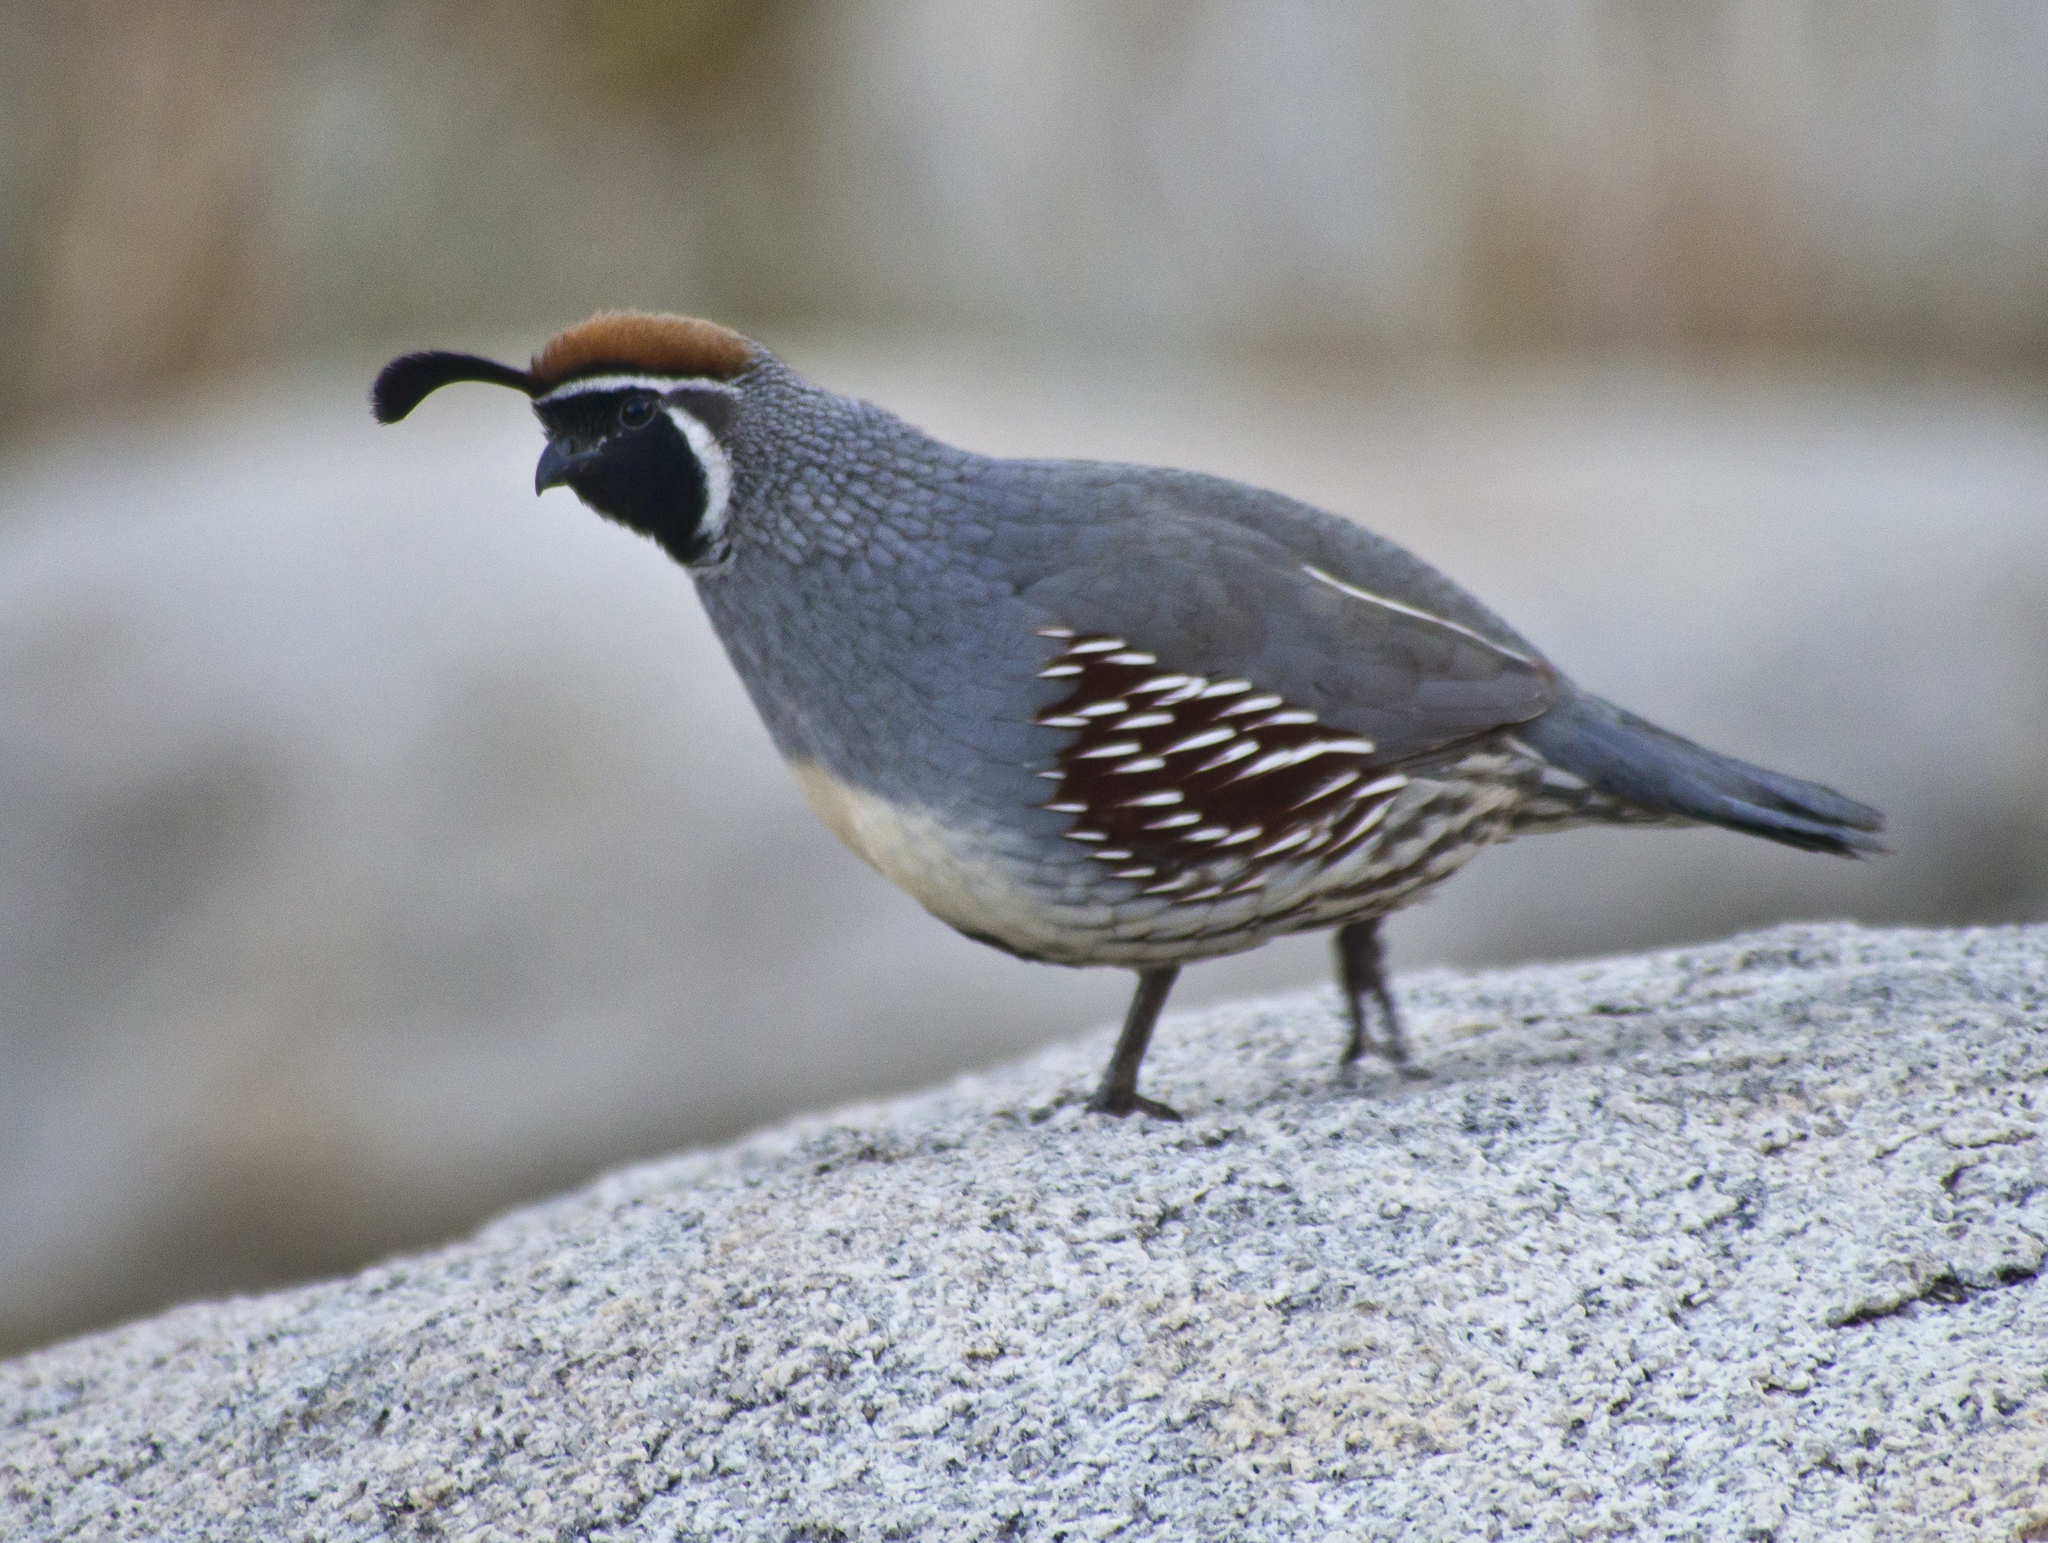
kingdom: Animalia
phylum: Chordata
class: Aves
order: Galliformes
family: Odontophoridae
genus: Callipepla
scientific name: Callipepla gambelii
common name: Gambel's quail
